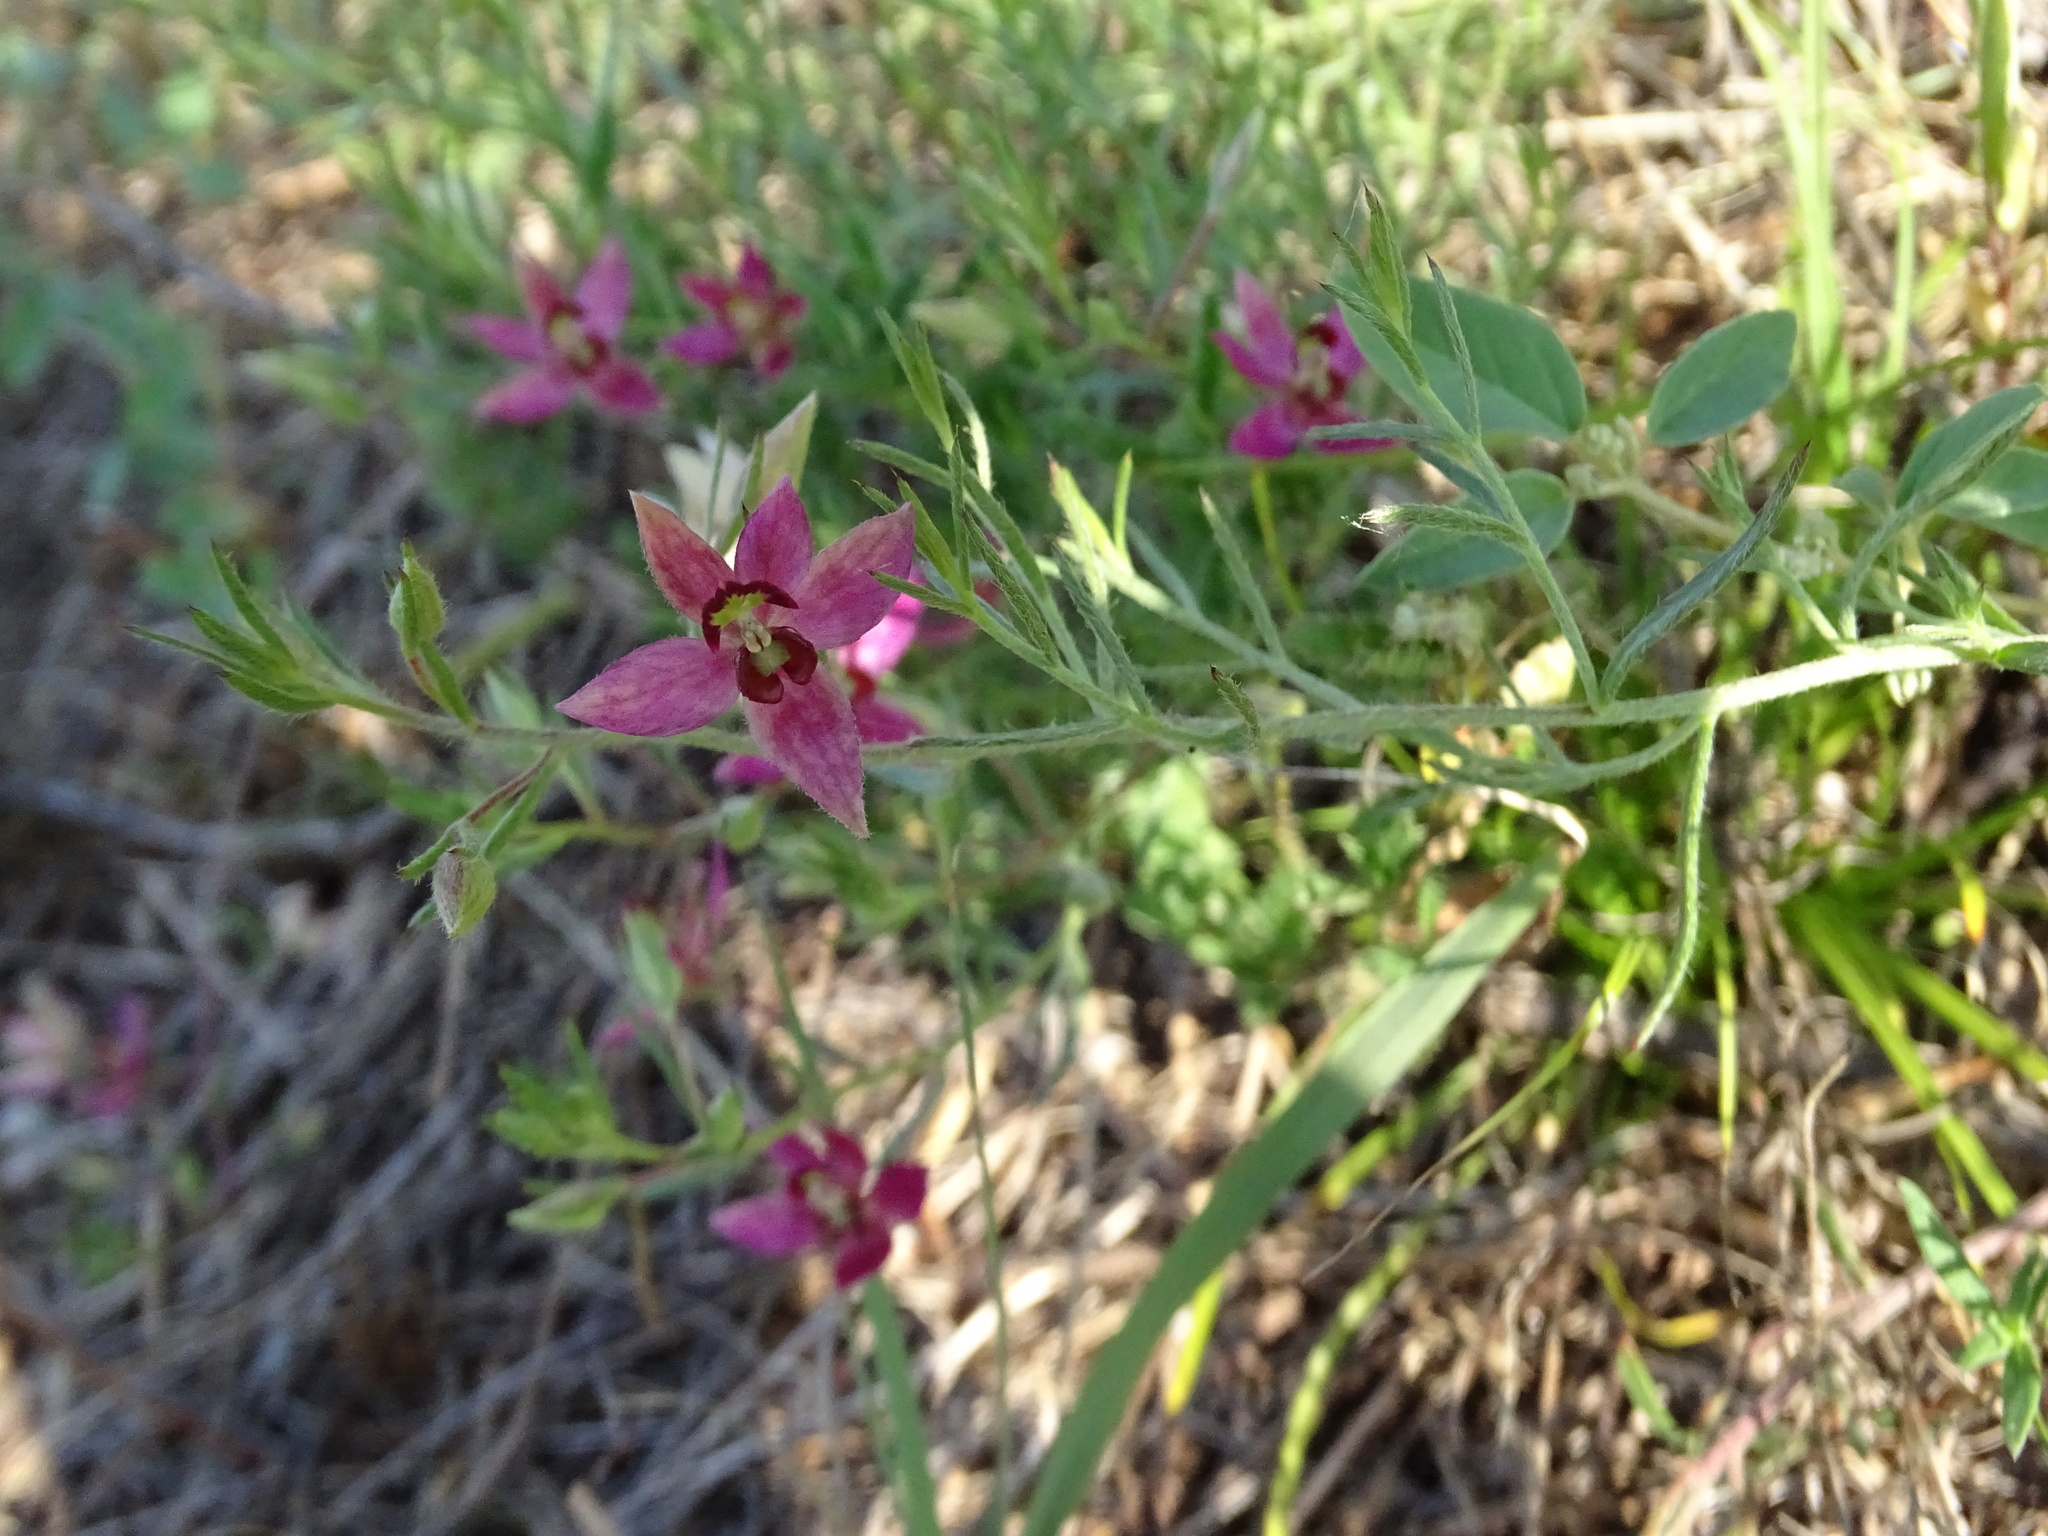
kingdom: Plantae
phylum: Tracheophyta
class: Magnoliopsida
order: Zygophyllales
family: Krameriaceae
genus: Krameria
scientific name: Krameria lanceolata
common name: Ratany
